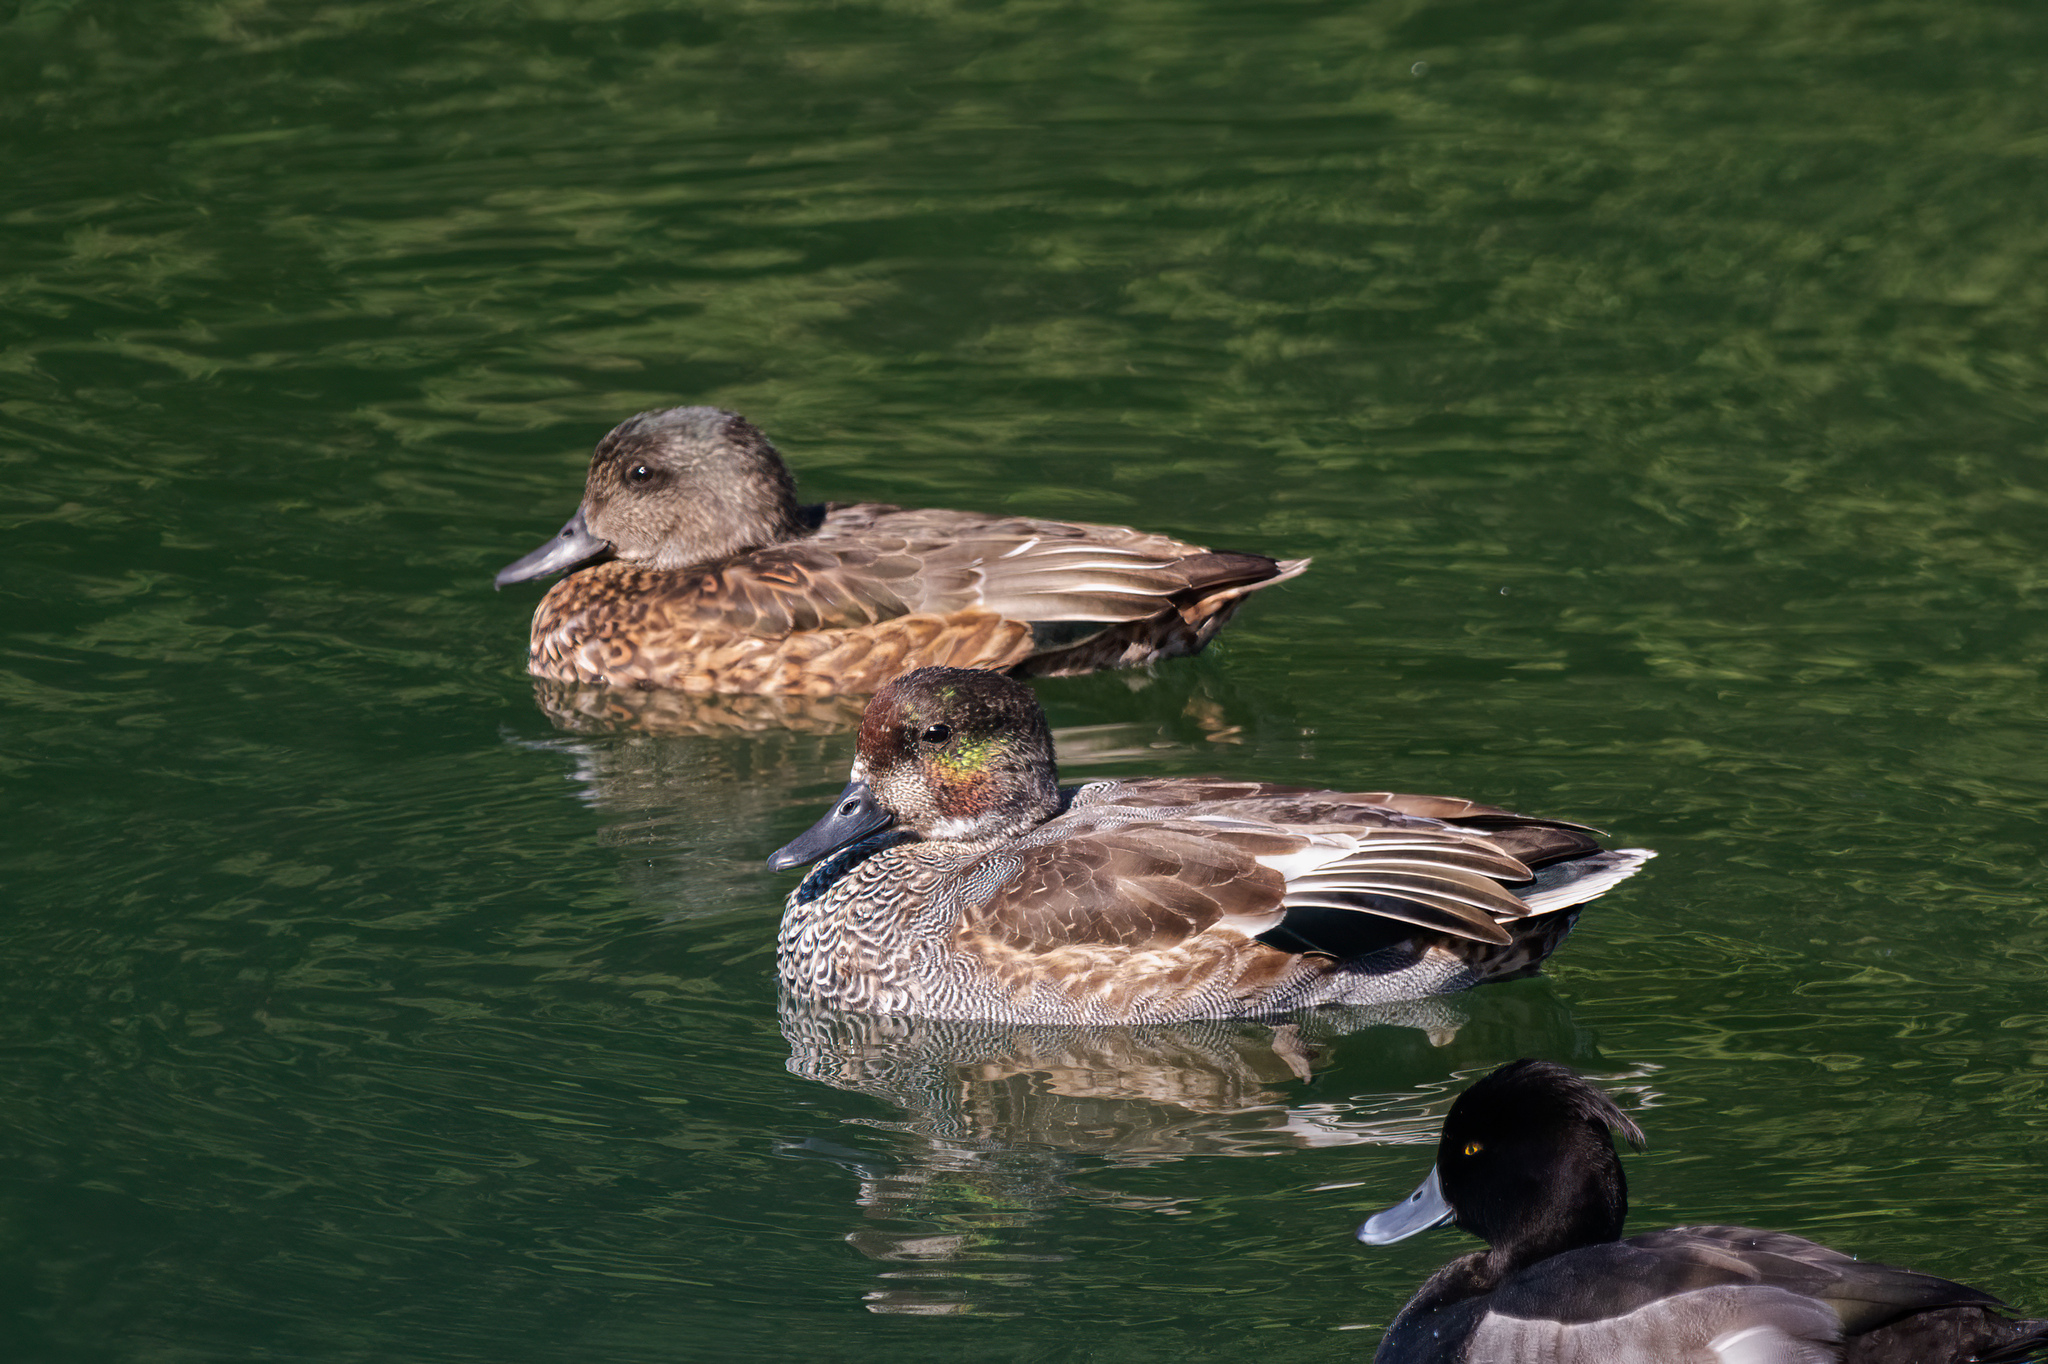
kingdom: Animalia
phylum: Chordata
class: Aves
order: Anseriformes
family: Anatidae
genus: Mareca
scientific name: Mareca falcata
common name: Falcated duck
